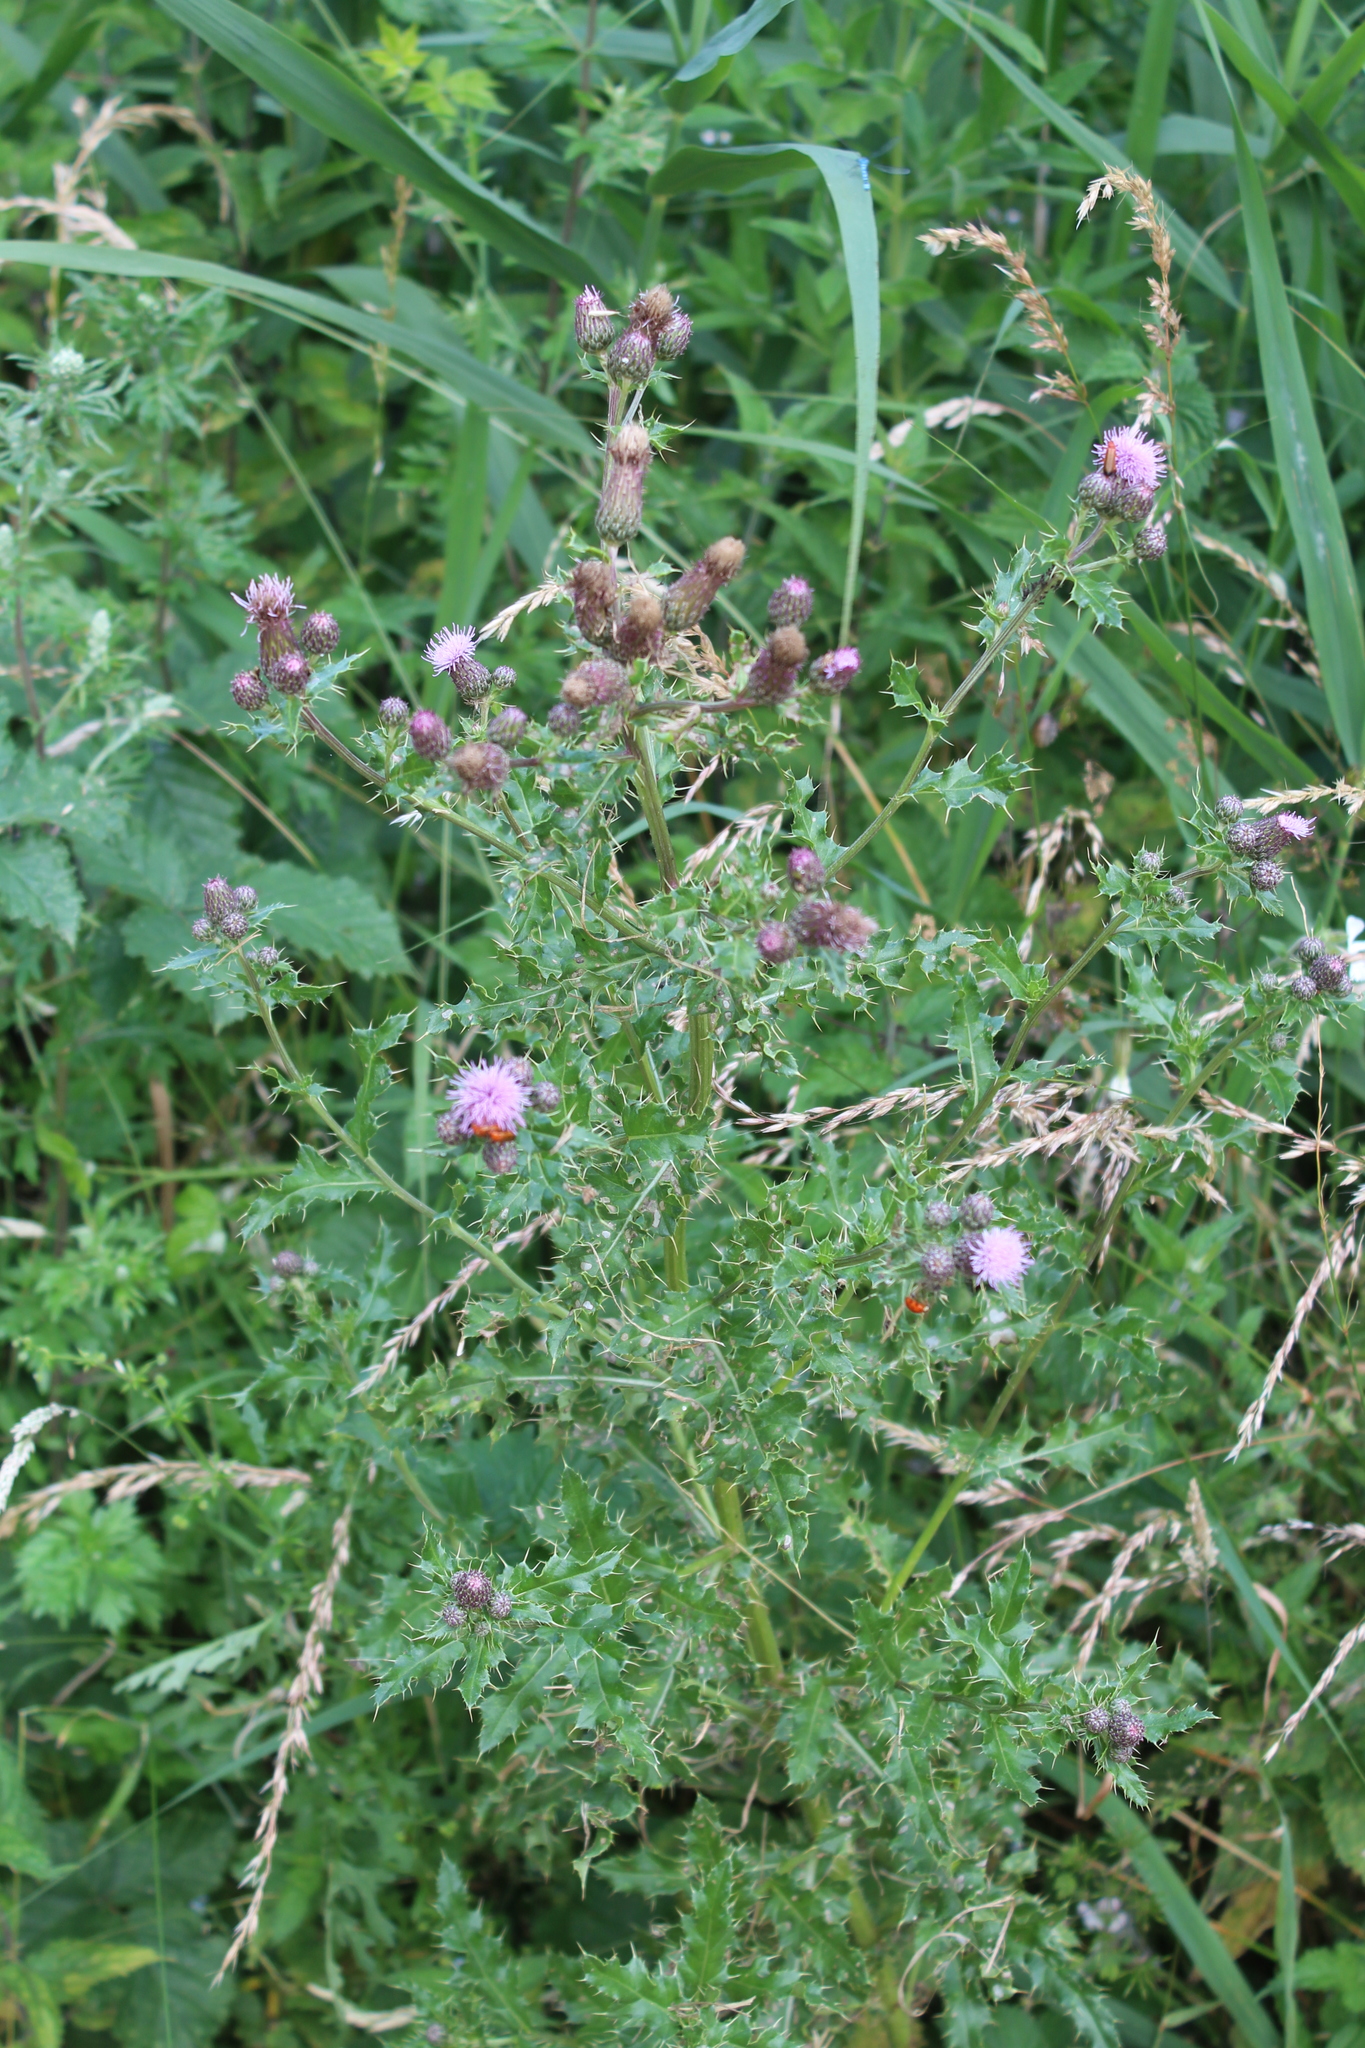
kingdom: Plantae
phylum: Tracheophyta
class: Magnoliopsida
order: Asterales
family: Asteraceae
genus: Cirsium
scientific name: Cirsium arvense
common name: Creeping thistle
